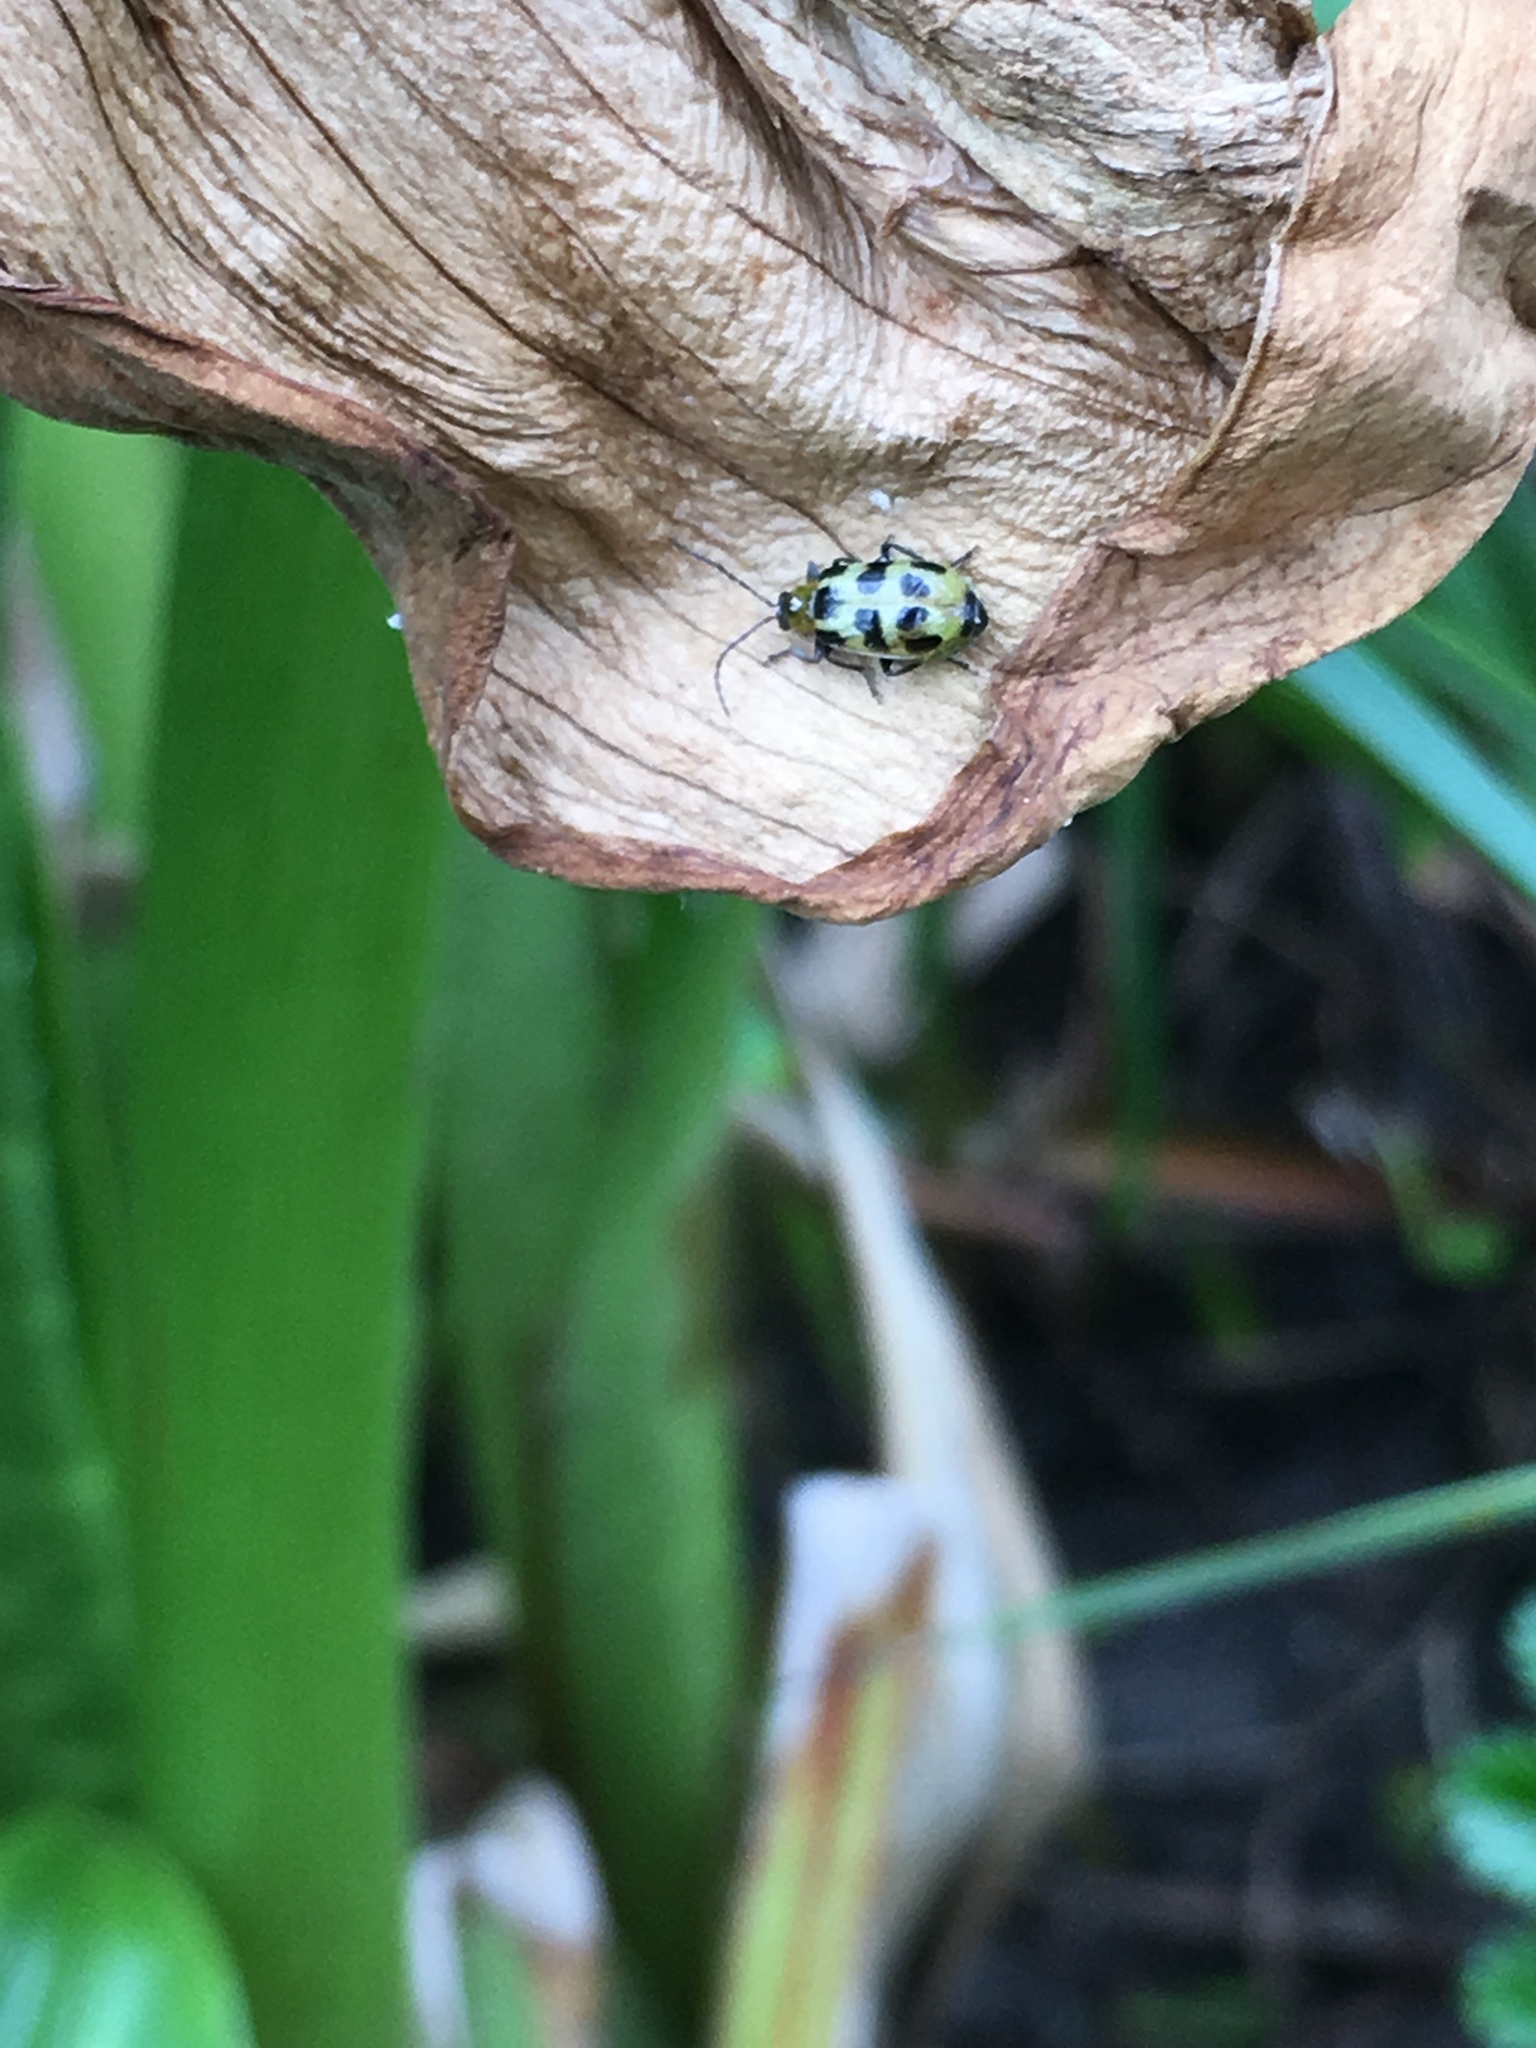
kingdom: Animalia
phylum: Arthropoda
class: Insecta
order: Coleoptera
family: Chrysomelidae
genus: Diabrotica
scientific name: Diabrotica undecimpunctata
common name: Spotted cucumber beetle
